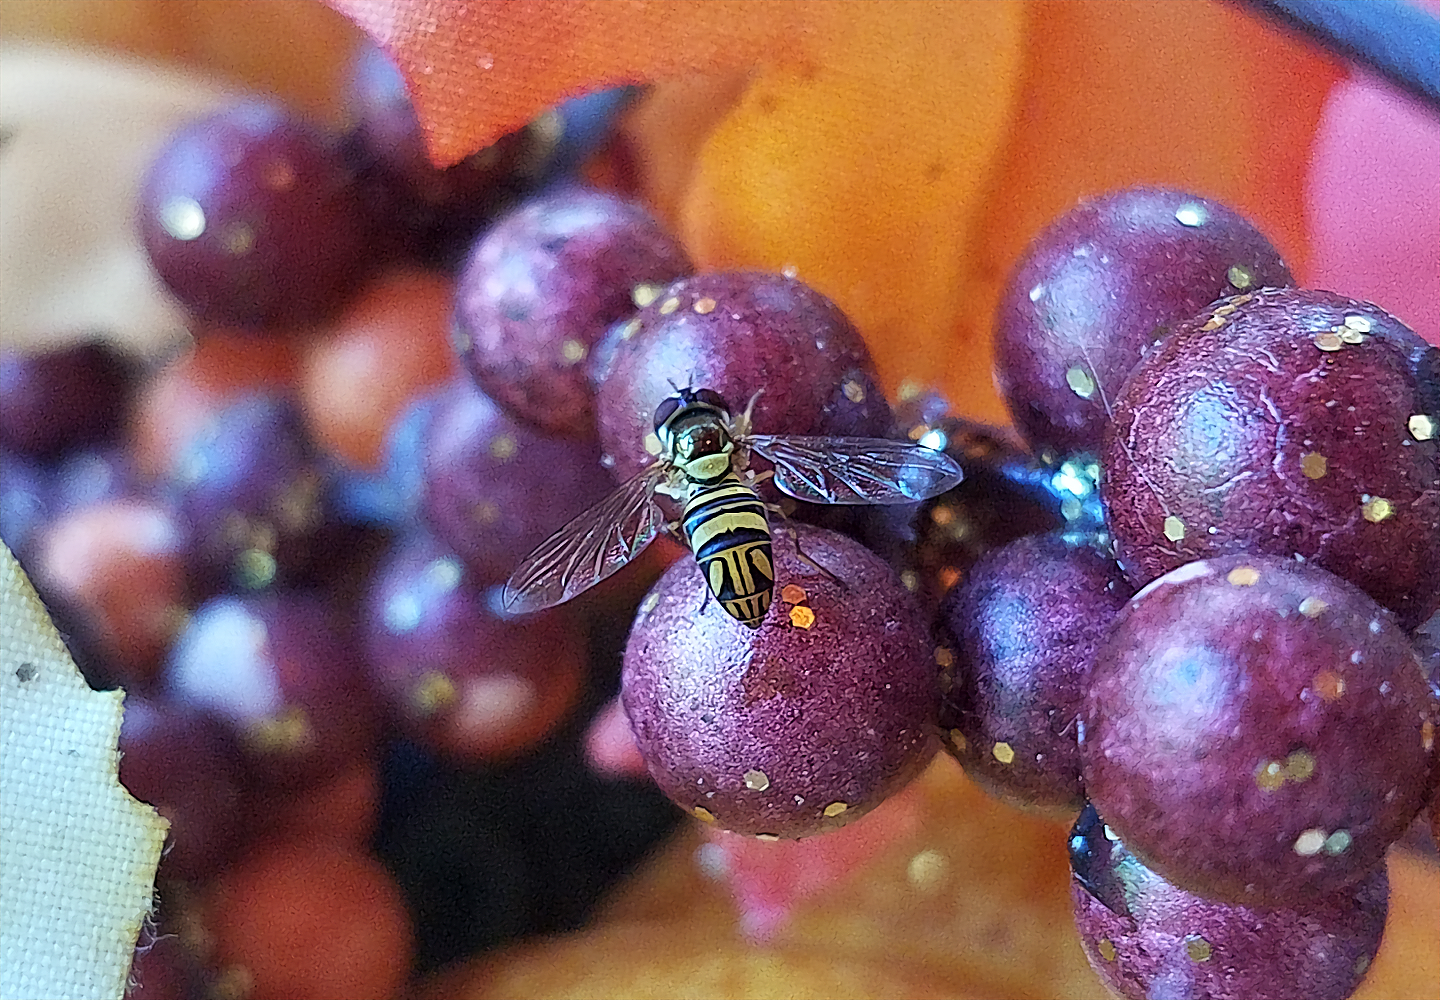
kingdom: Animalia
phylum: Arthropoda
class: Insecta
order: Diptera
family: Syrphidae
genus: Allograpta
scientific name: Allograpta obliqua
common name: Common oblique syrphid
